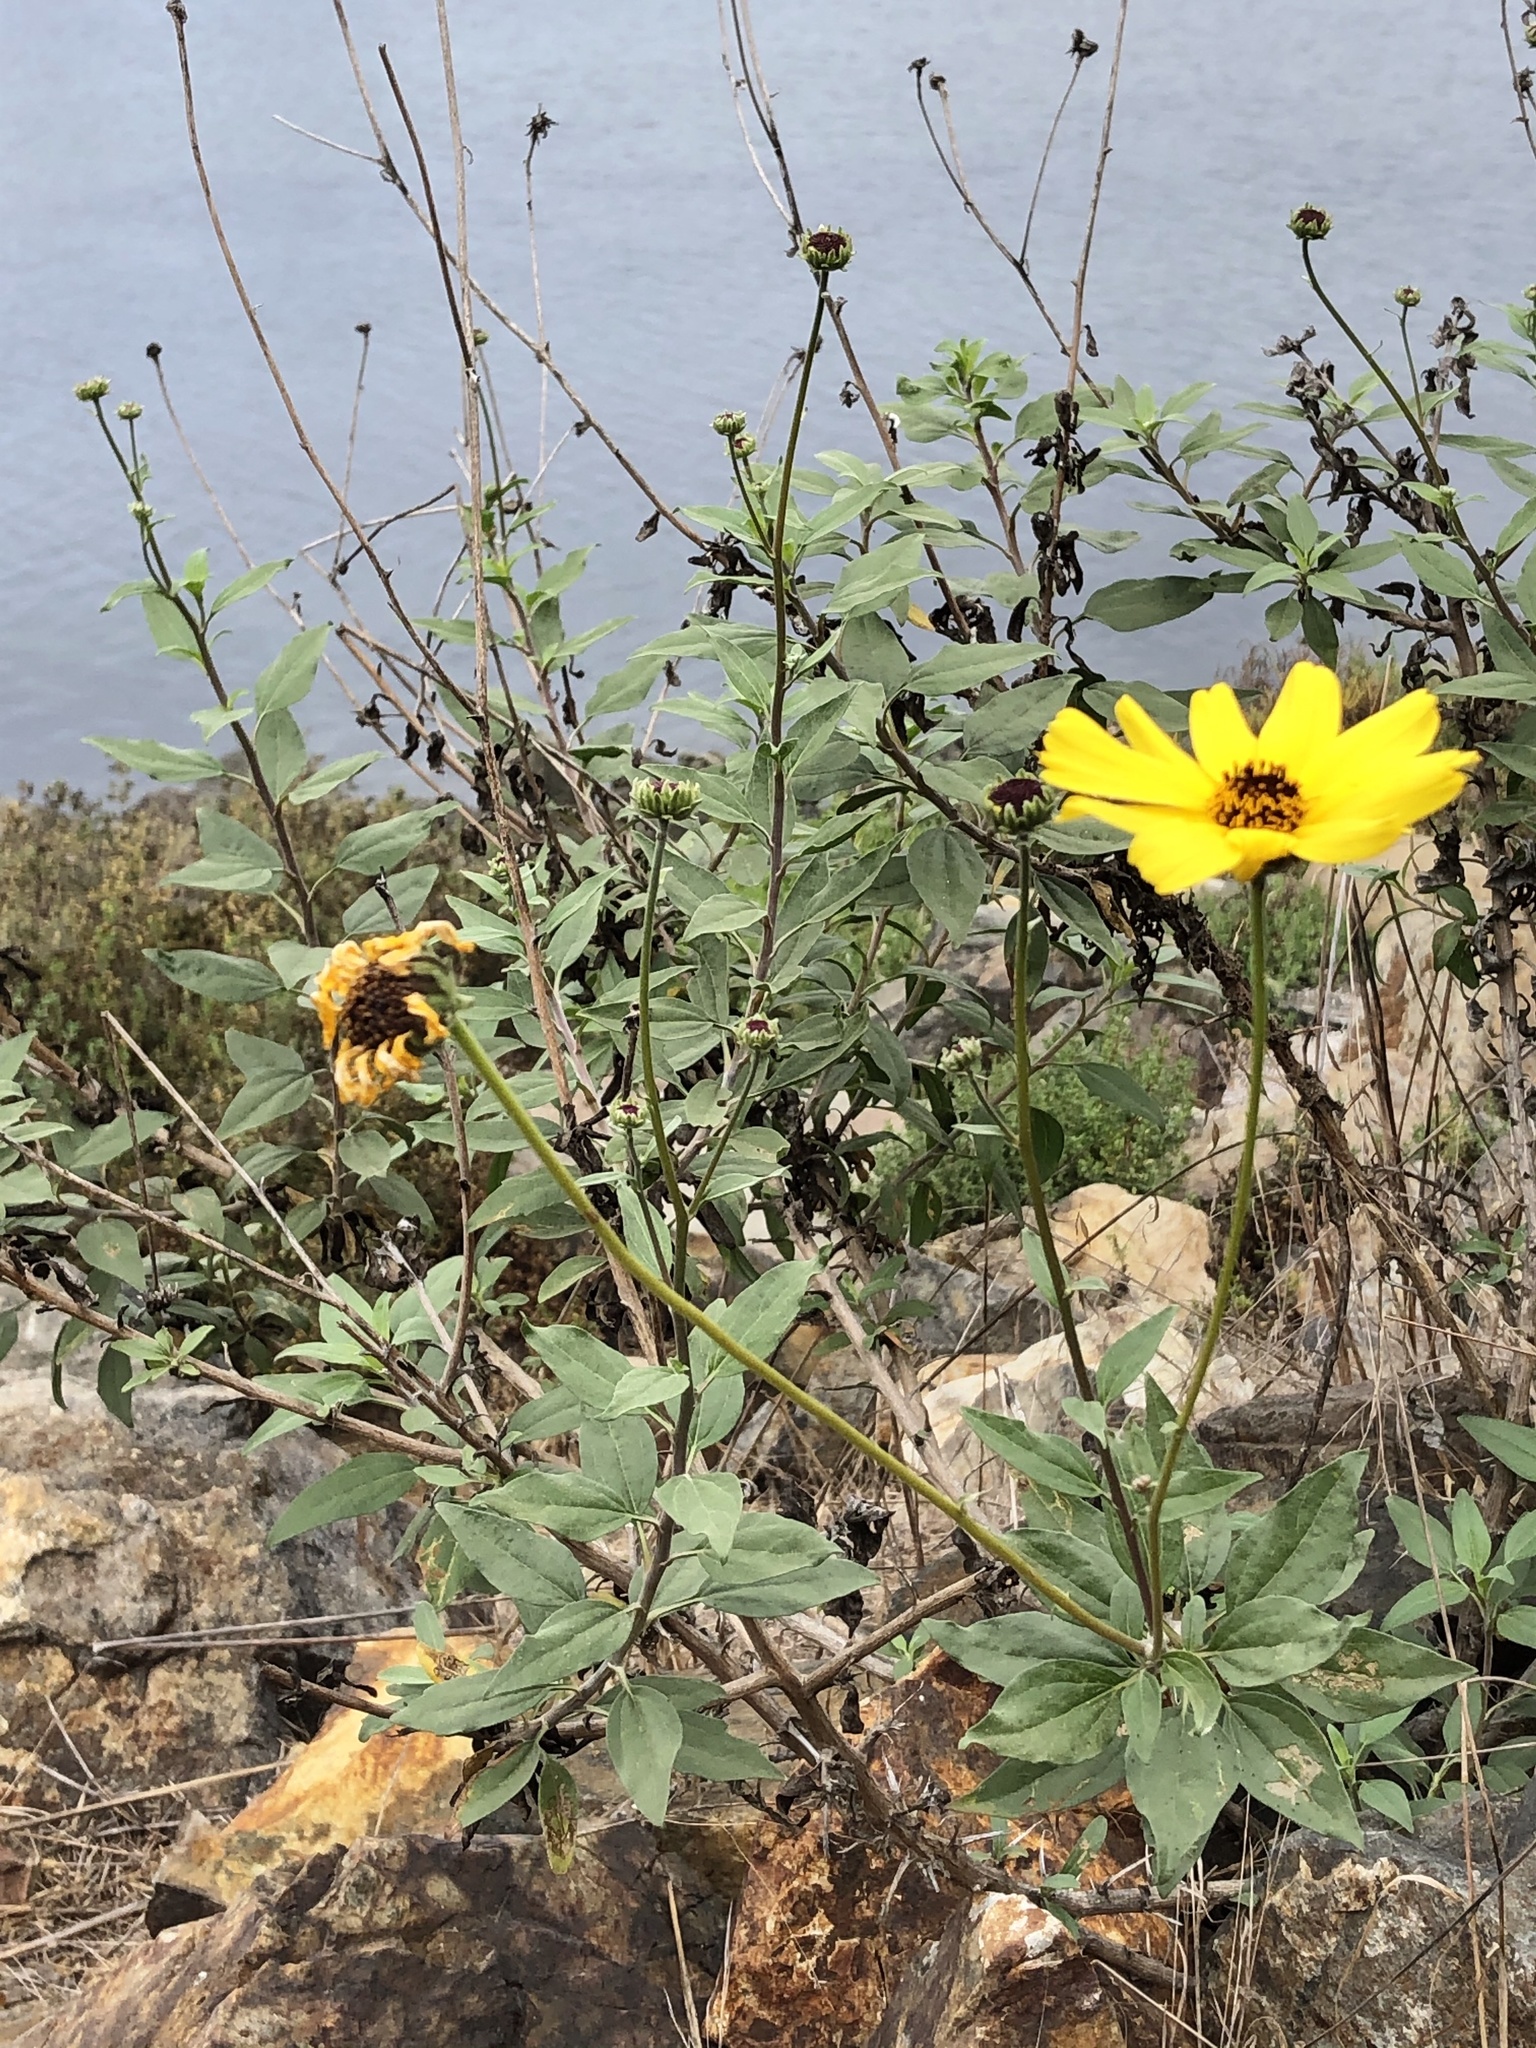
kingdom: Plantae
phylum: Tracheophyta
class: Magnoliopsida
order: Asterales
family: Asteraceae
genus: Encelia
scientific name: Encelia californica
